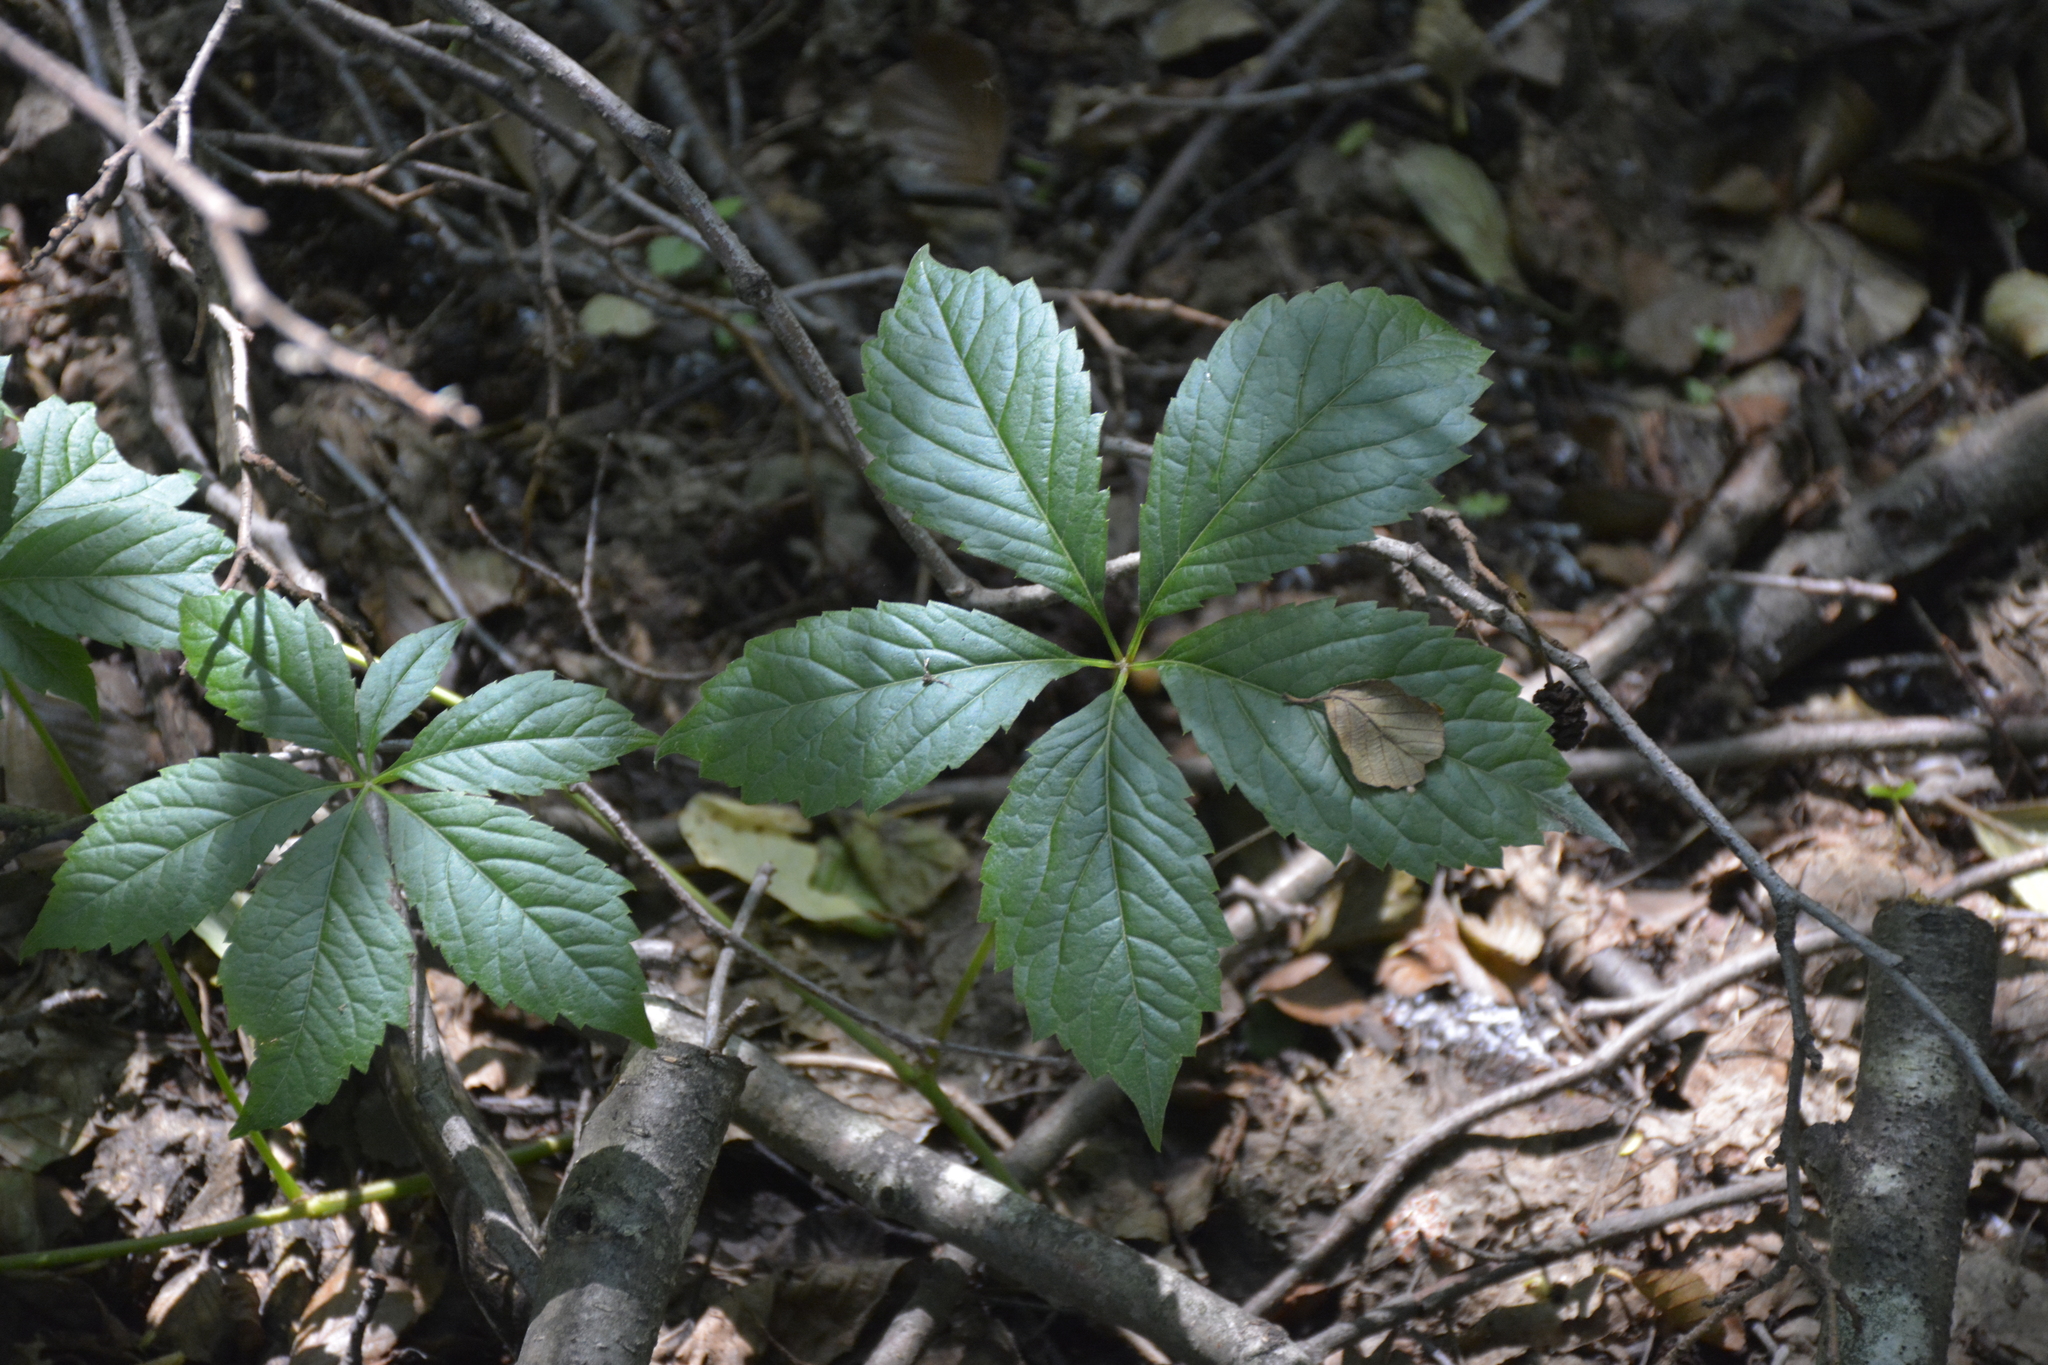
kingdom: Plantae
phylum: Tracheophyta
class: Magnoliopsida
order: Vitales
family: Vitaceae
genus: Parthenocissus
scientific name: Parthenocissus inserta
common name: False virginia-creeper
